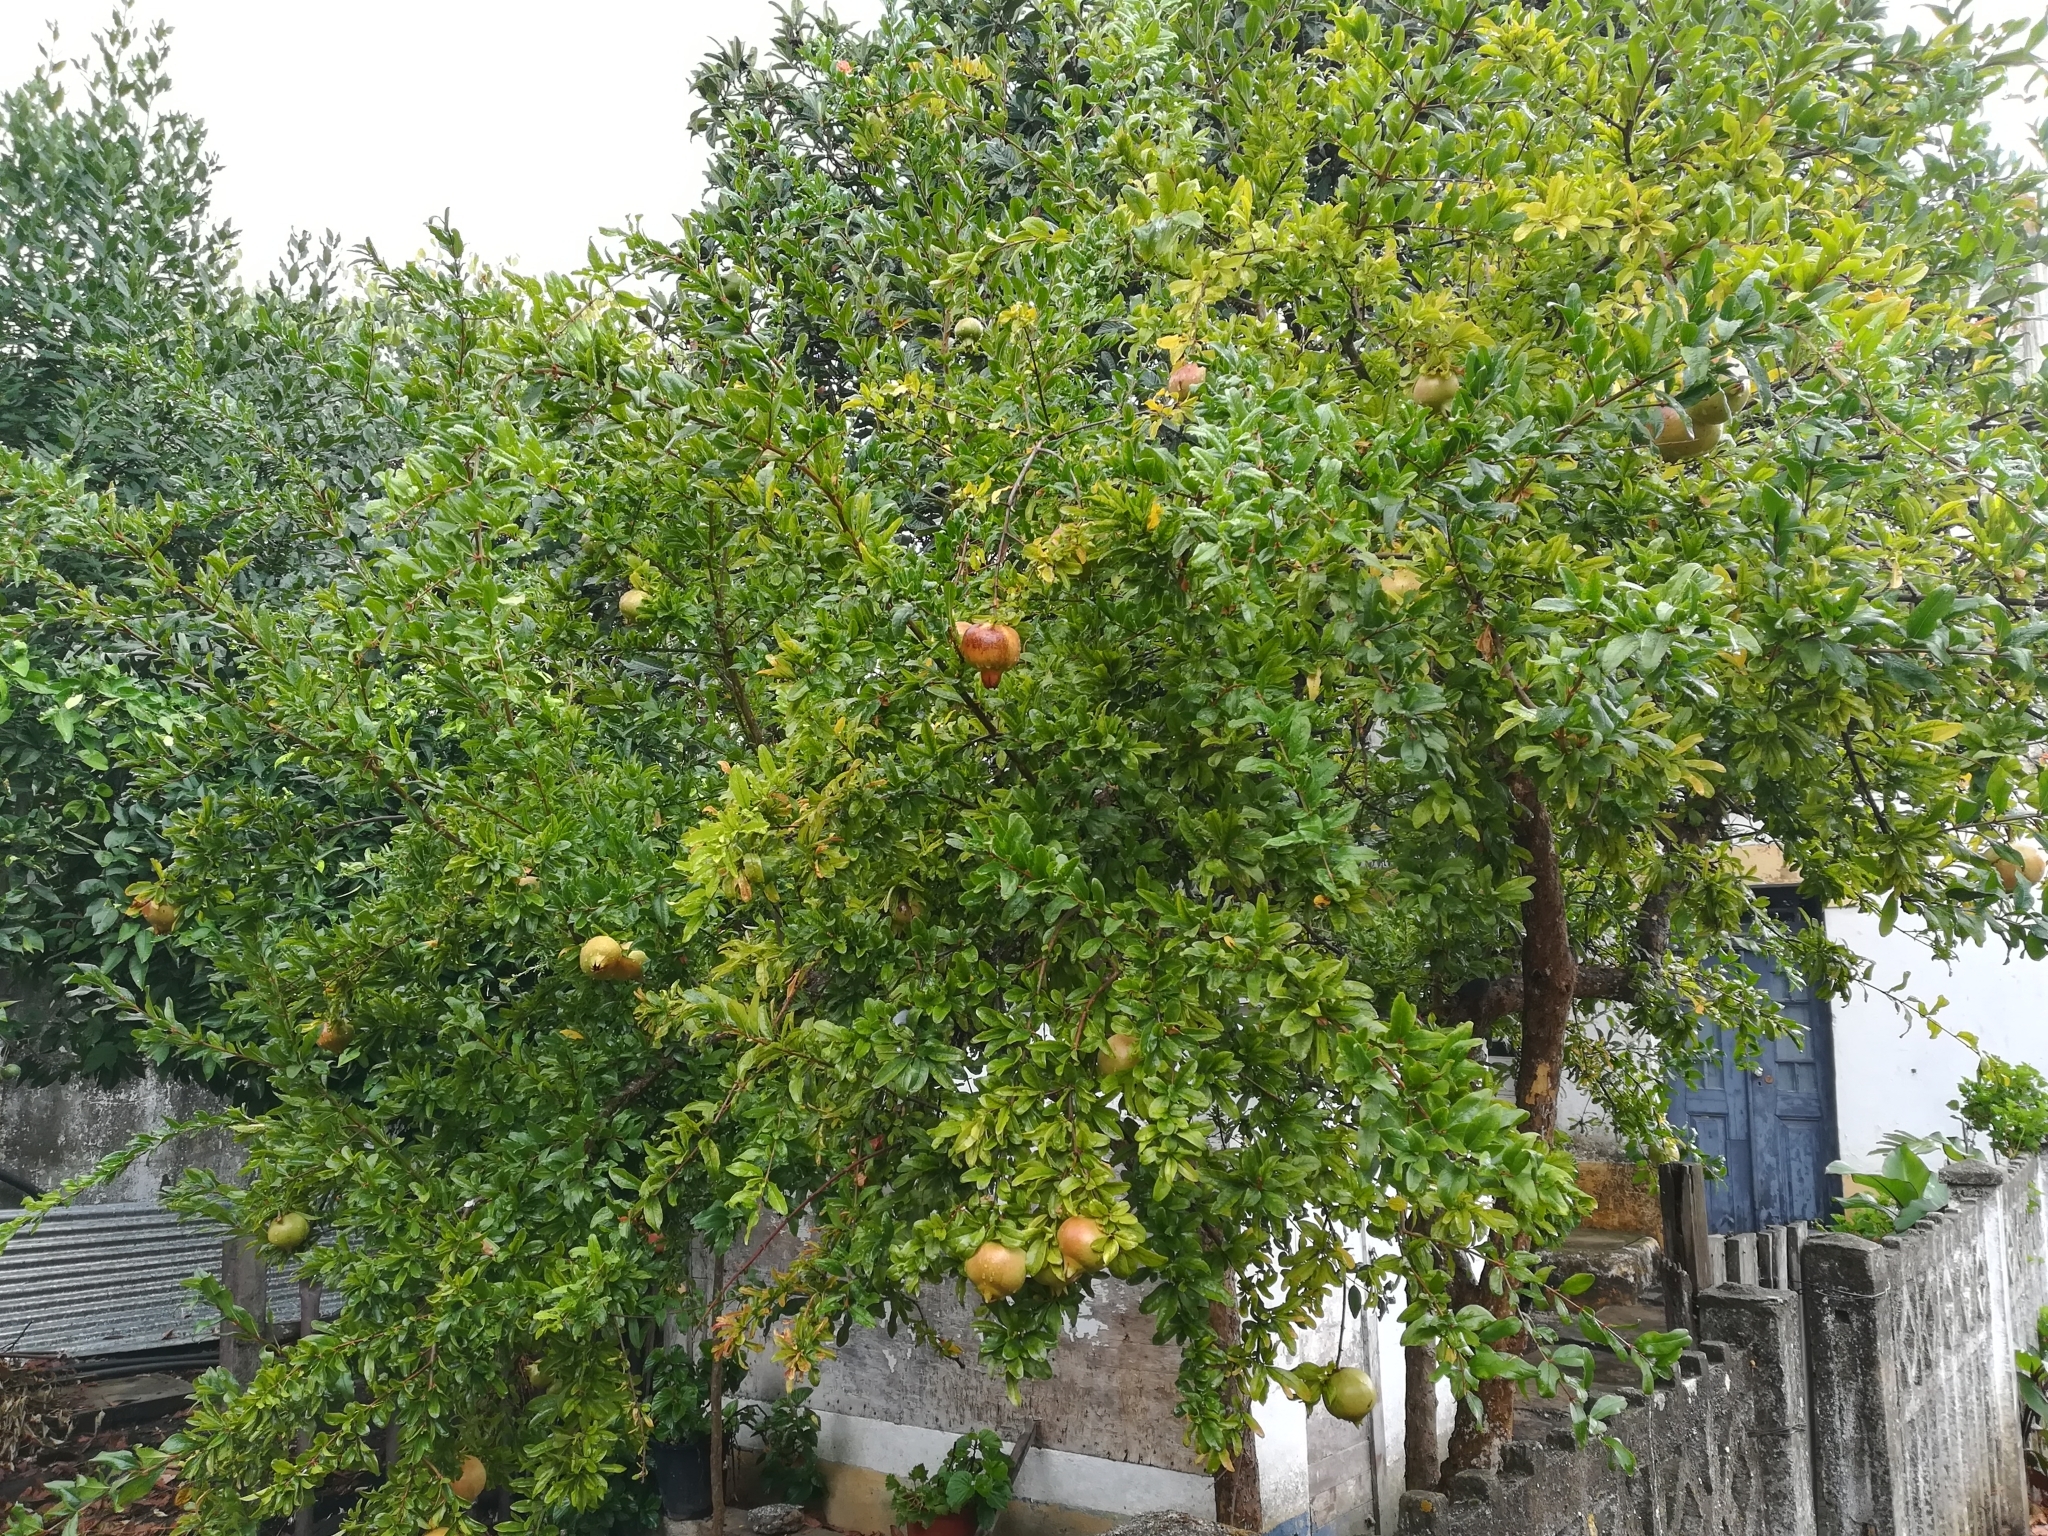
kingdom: Plantae
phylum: Tracheophyta
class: Magnoliopsida
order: Myrtales
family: Lythraceae
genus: Punica
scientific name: Punica granatum
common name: Pomegranate
